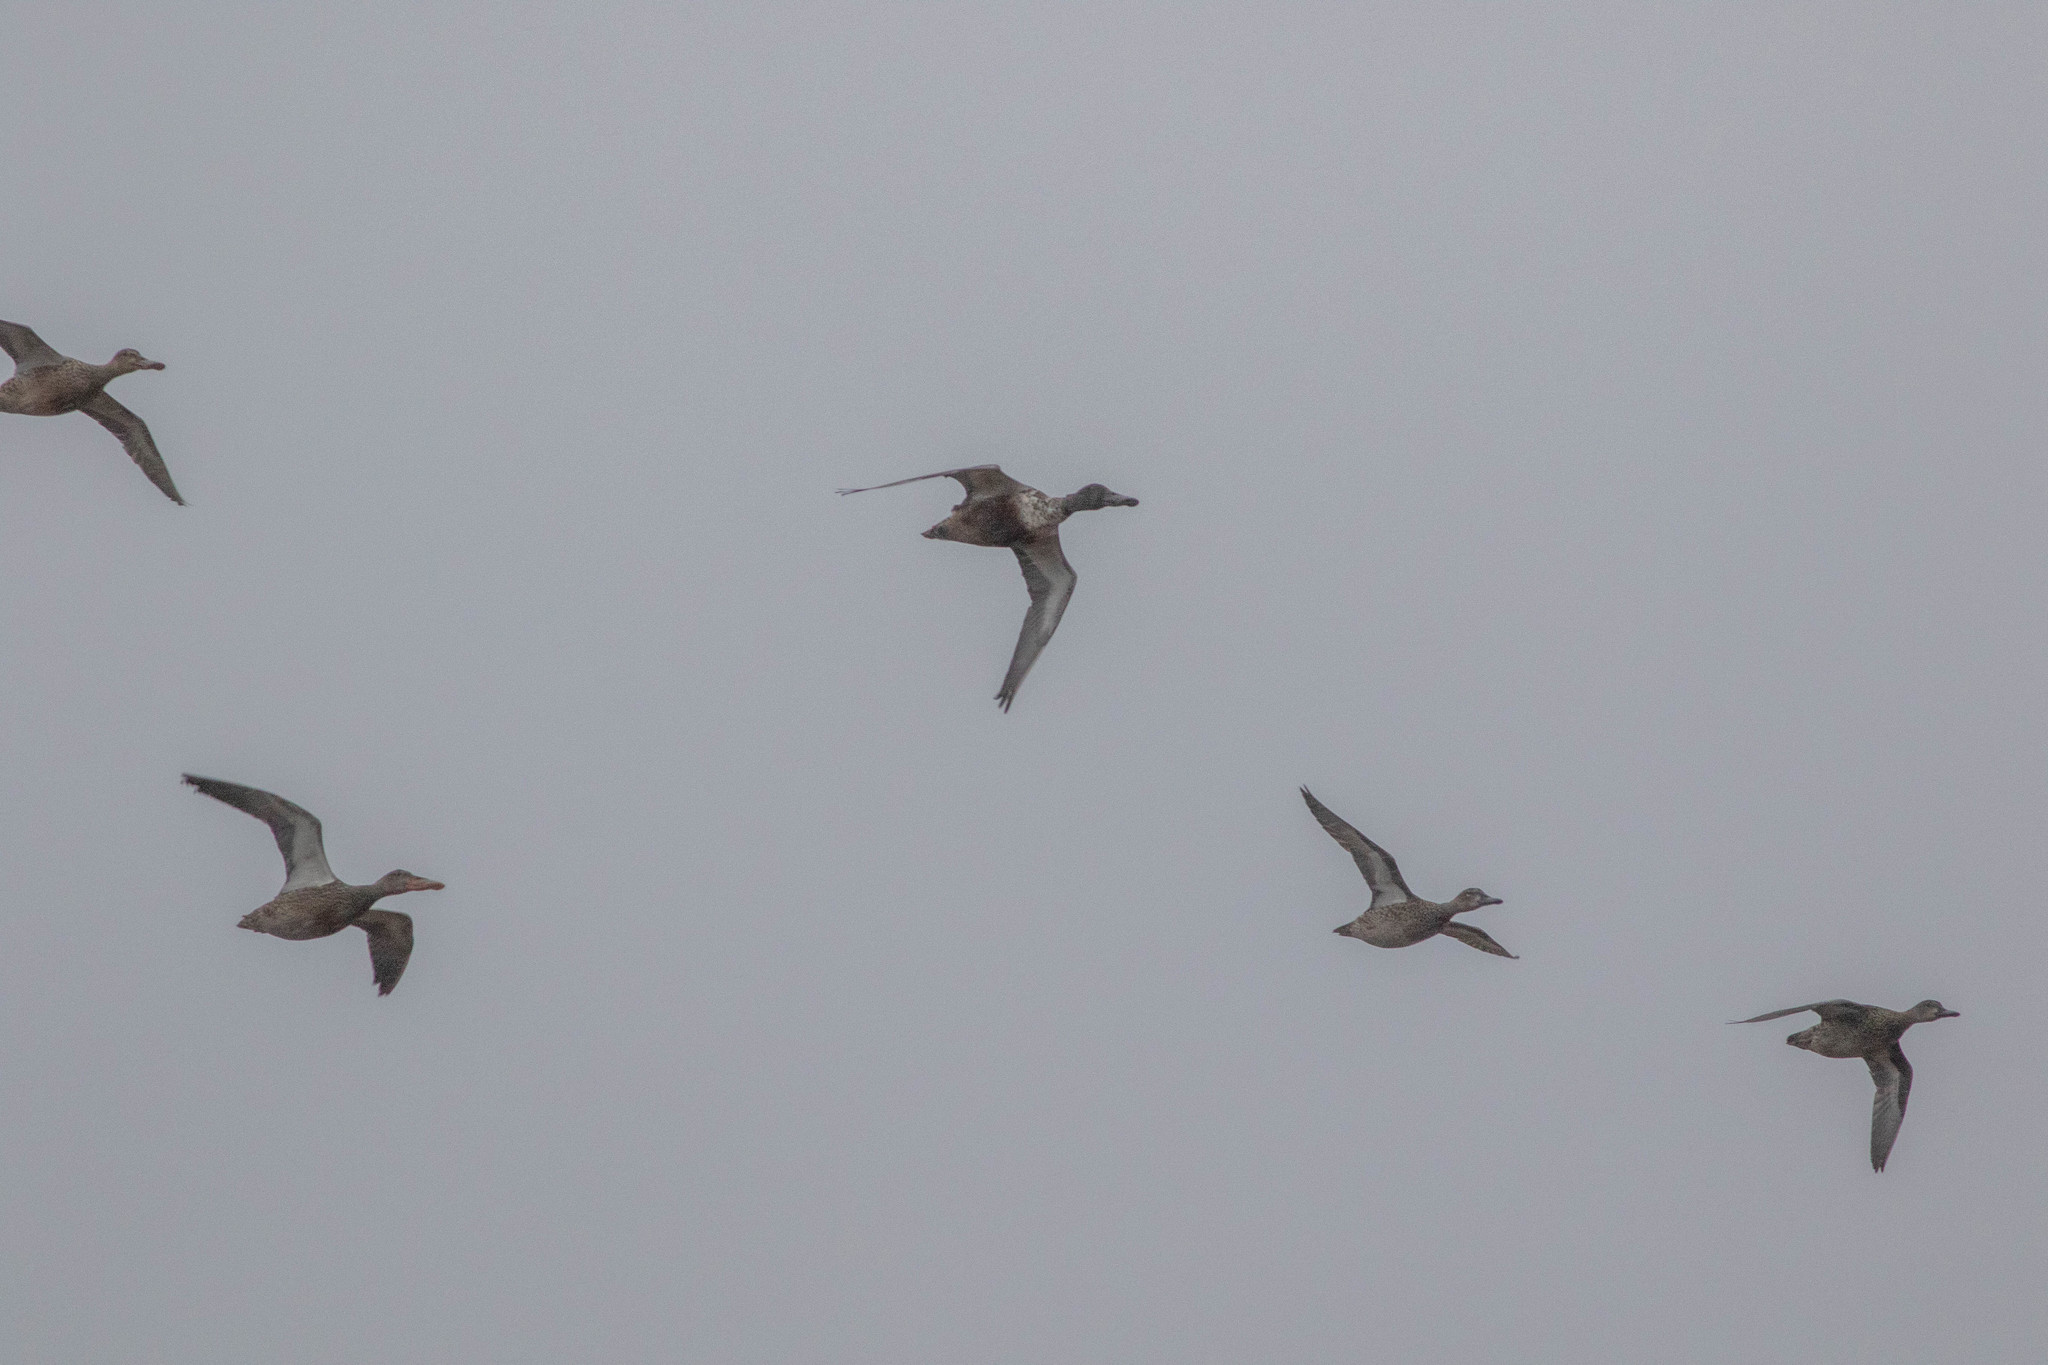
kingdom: Animalia
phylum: Chordata
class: Aves
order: Anseriformes
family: Anatidae
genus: Spatula
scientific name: Spatula clypeata
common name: Northern shoveler
